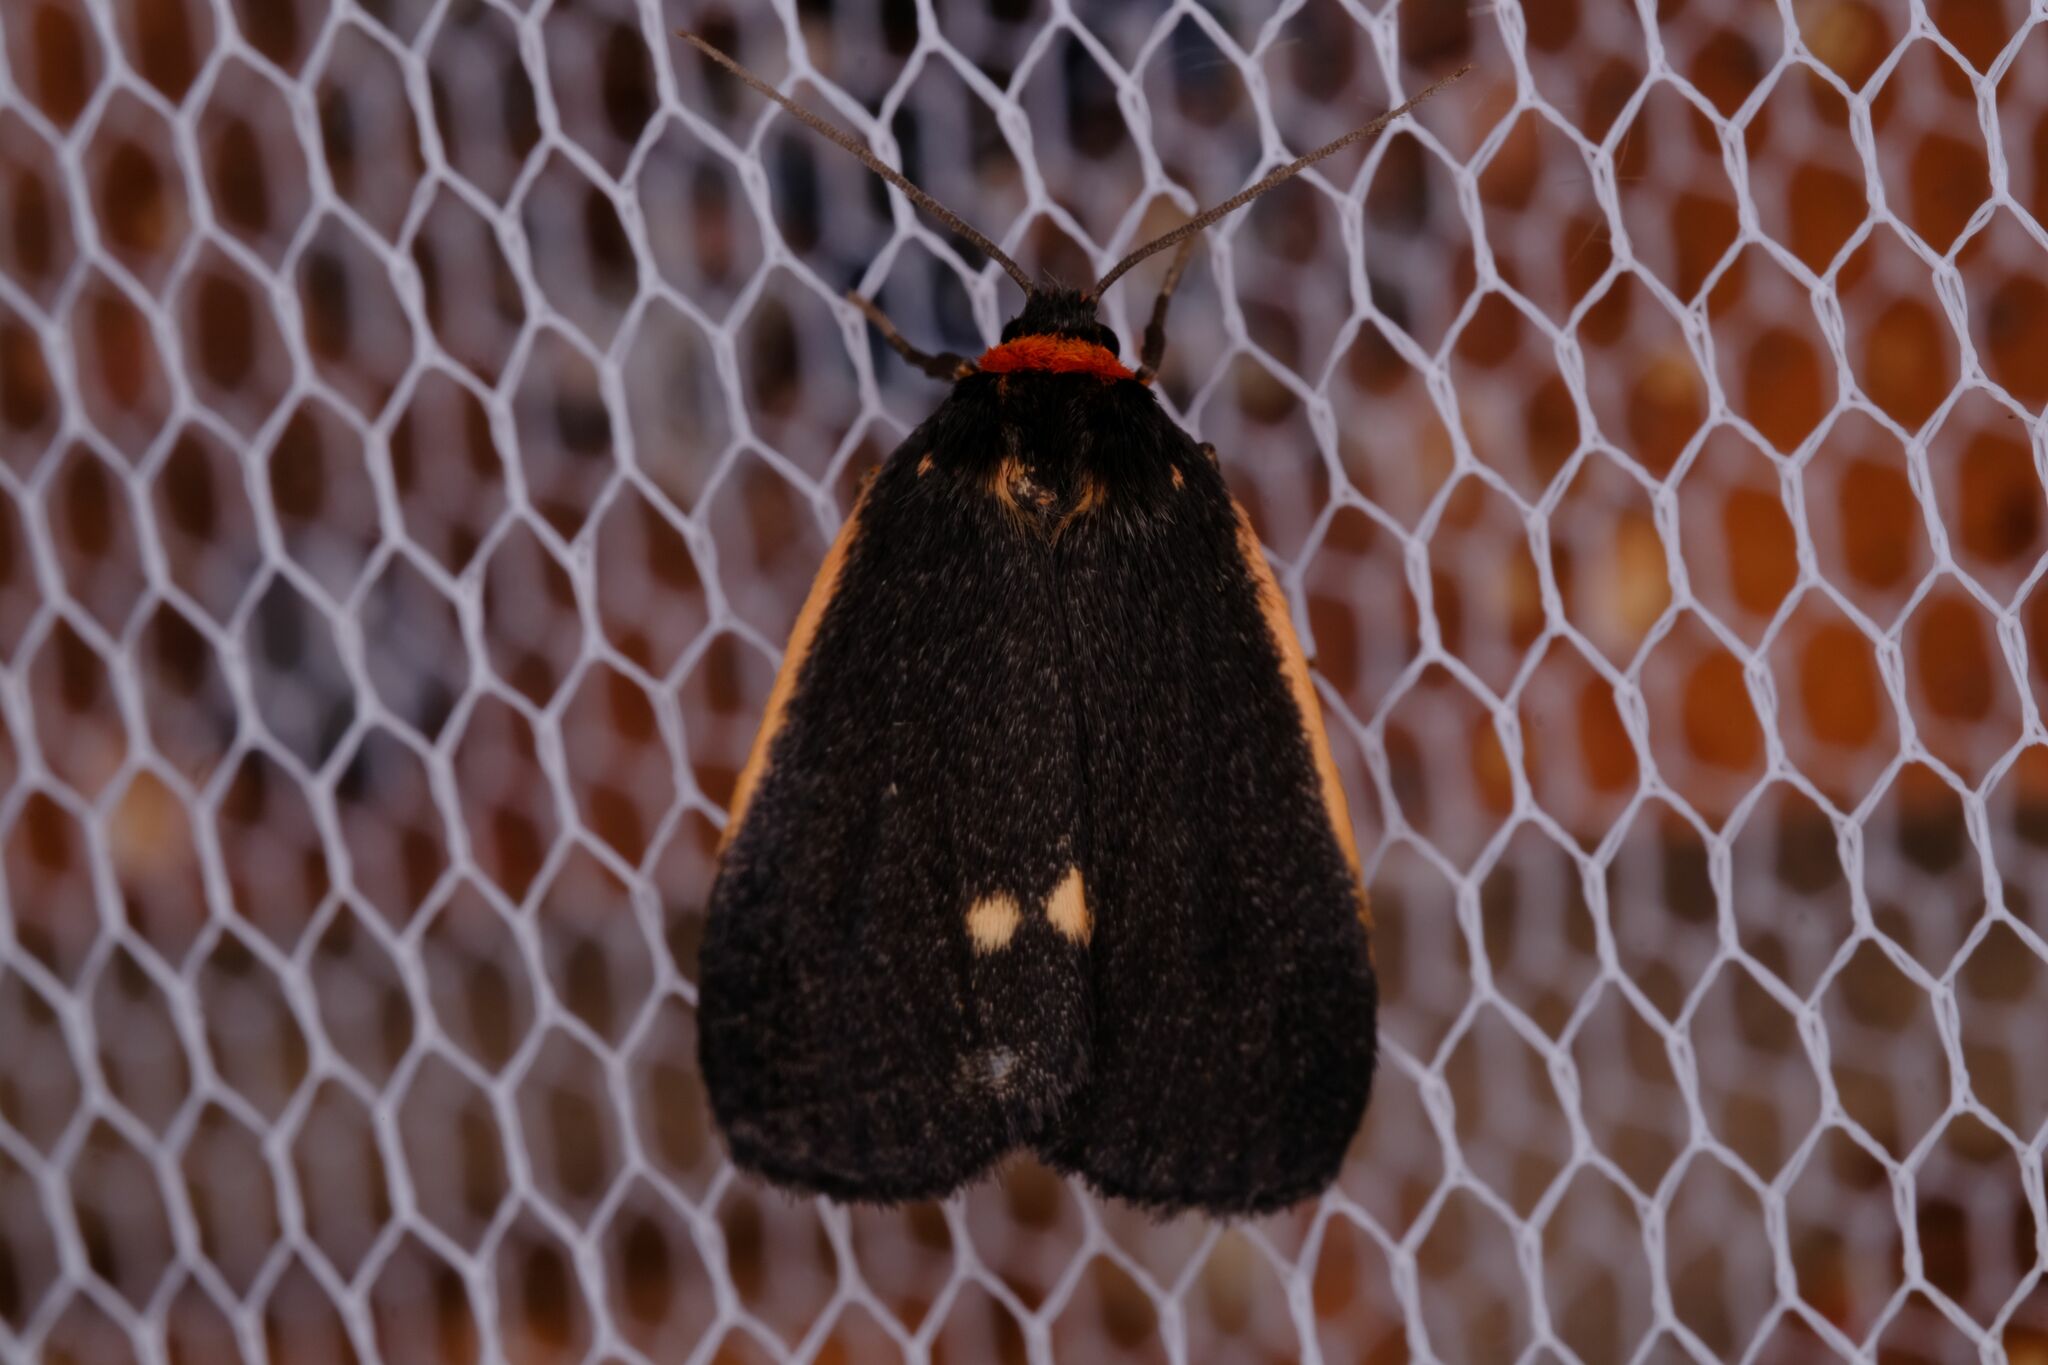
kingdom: Animalia
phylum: Arthropoda
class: Insecta
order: Lepidoptera
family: Erebidae
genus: Castulo
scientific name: Castulo doubledayi
